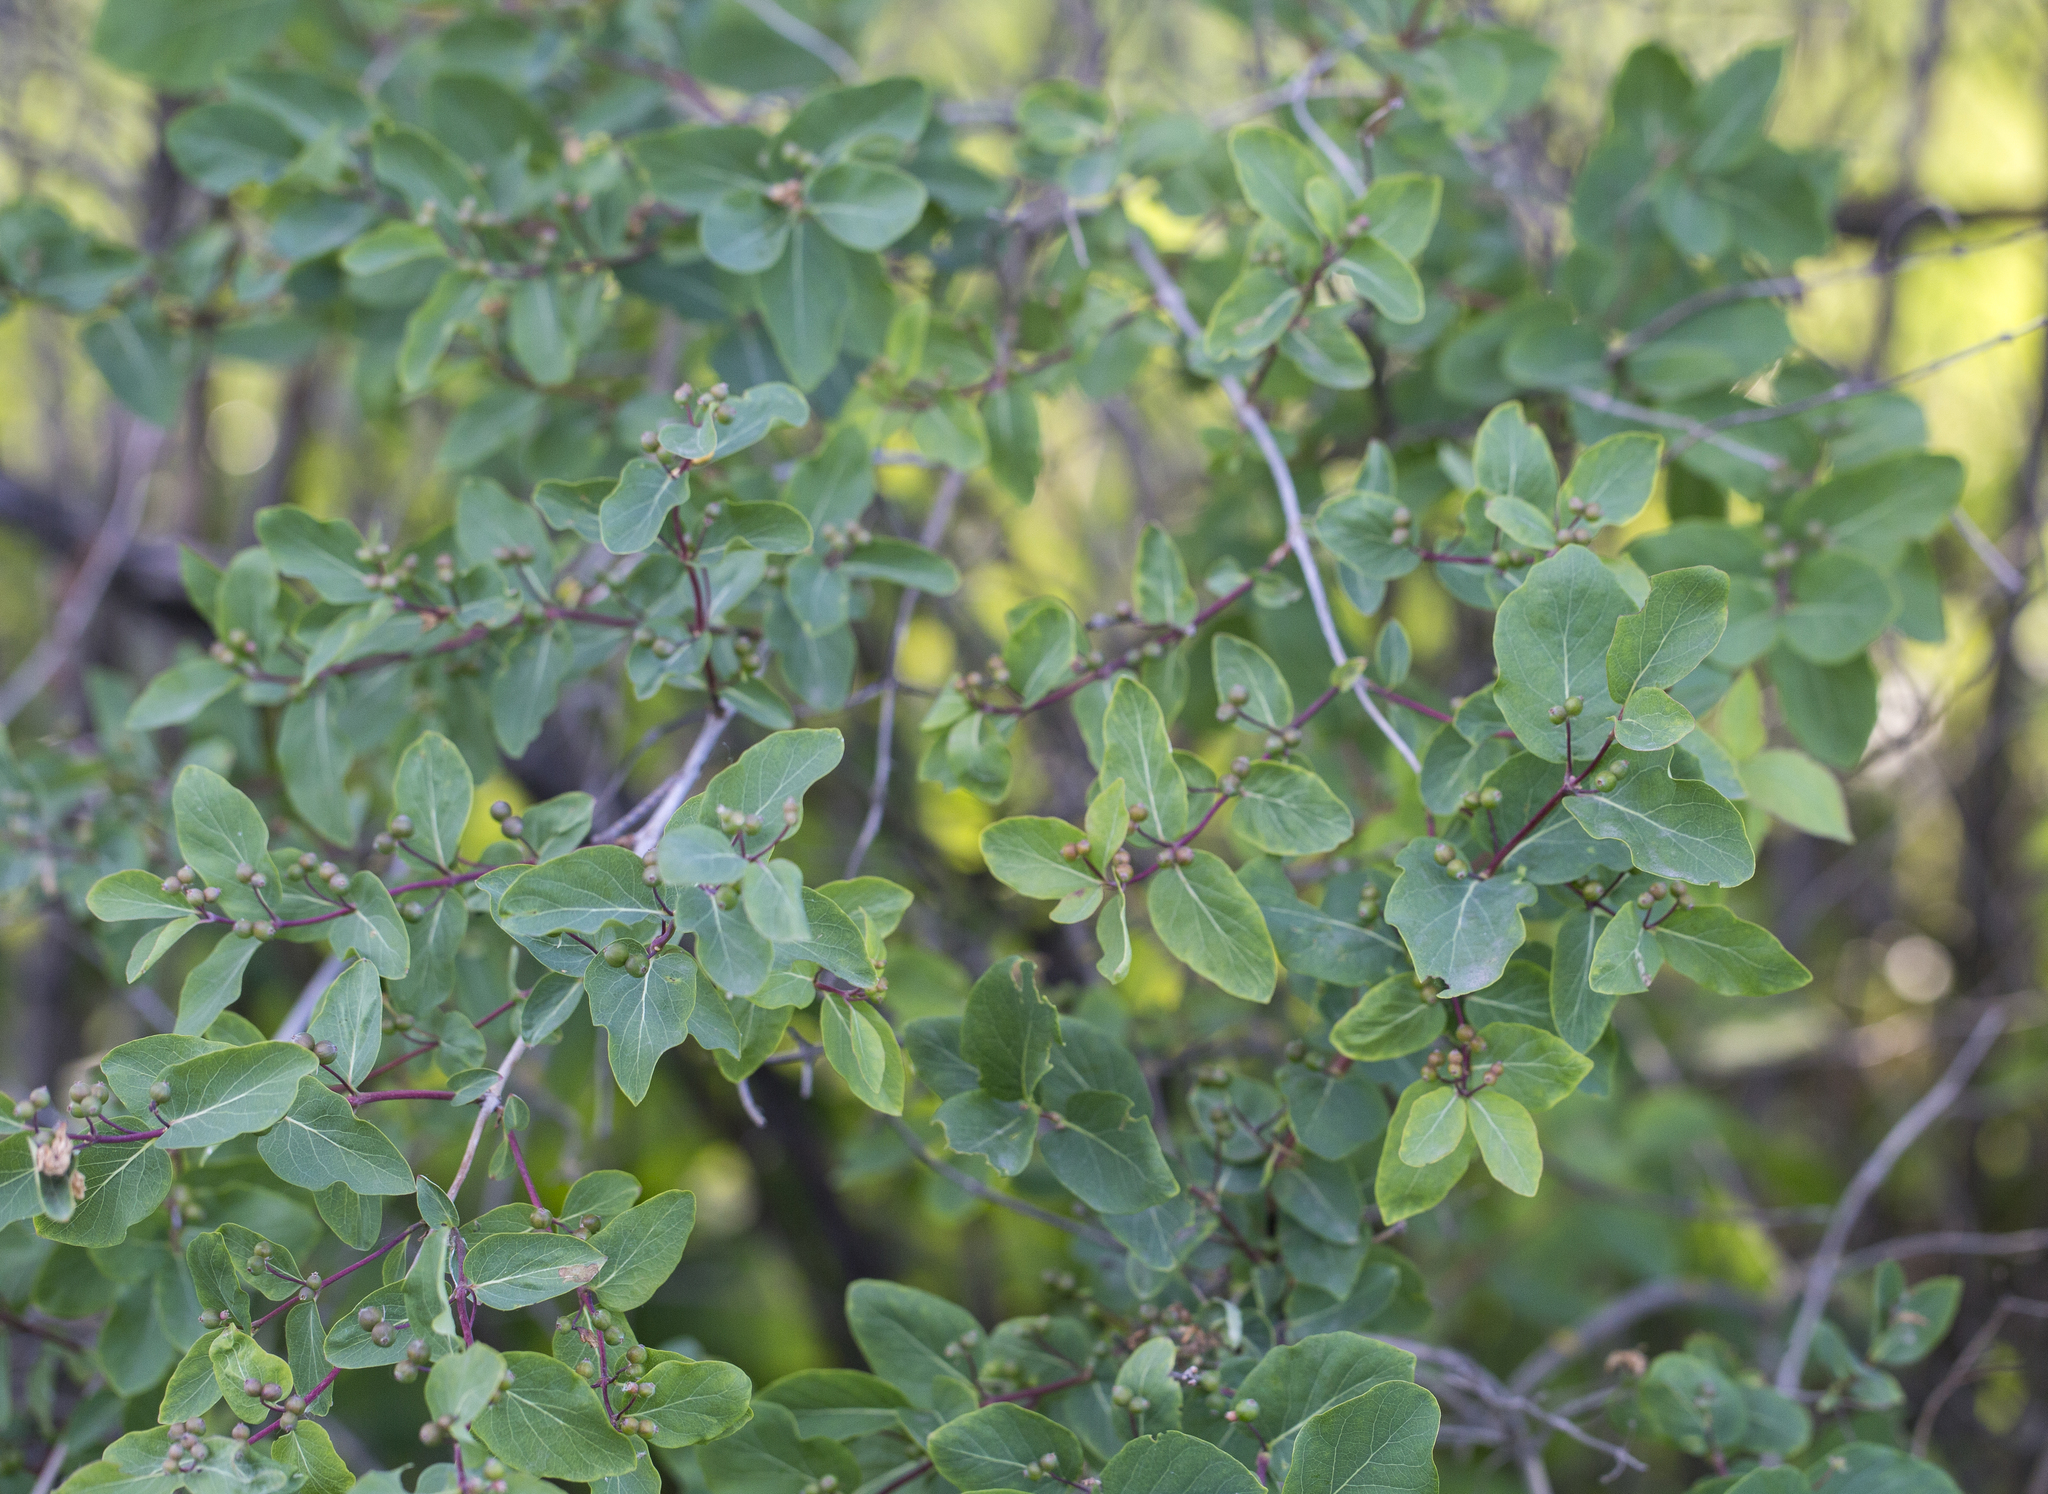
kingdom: Plantae
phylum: Tracheophyta
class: Magnoliopsida
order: Dipsacales
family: Caprifoliaceae
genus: Lonicera
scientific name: Lonicera tatarica
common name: Tatarian honeysuckle
